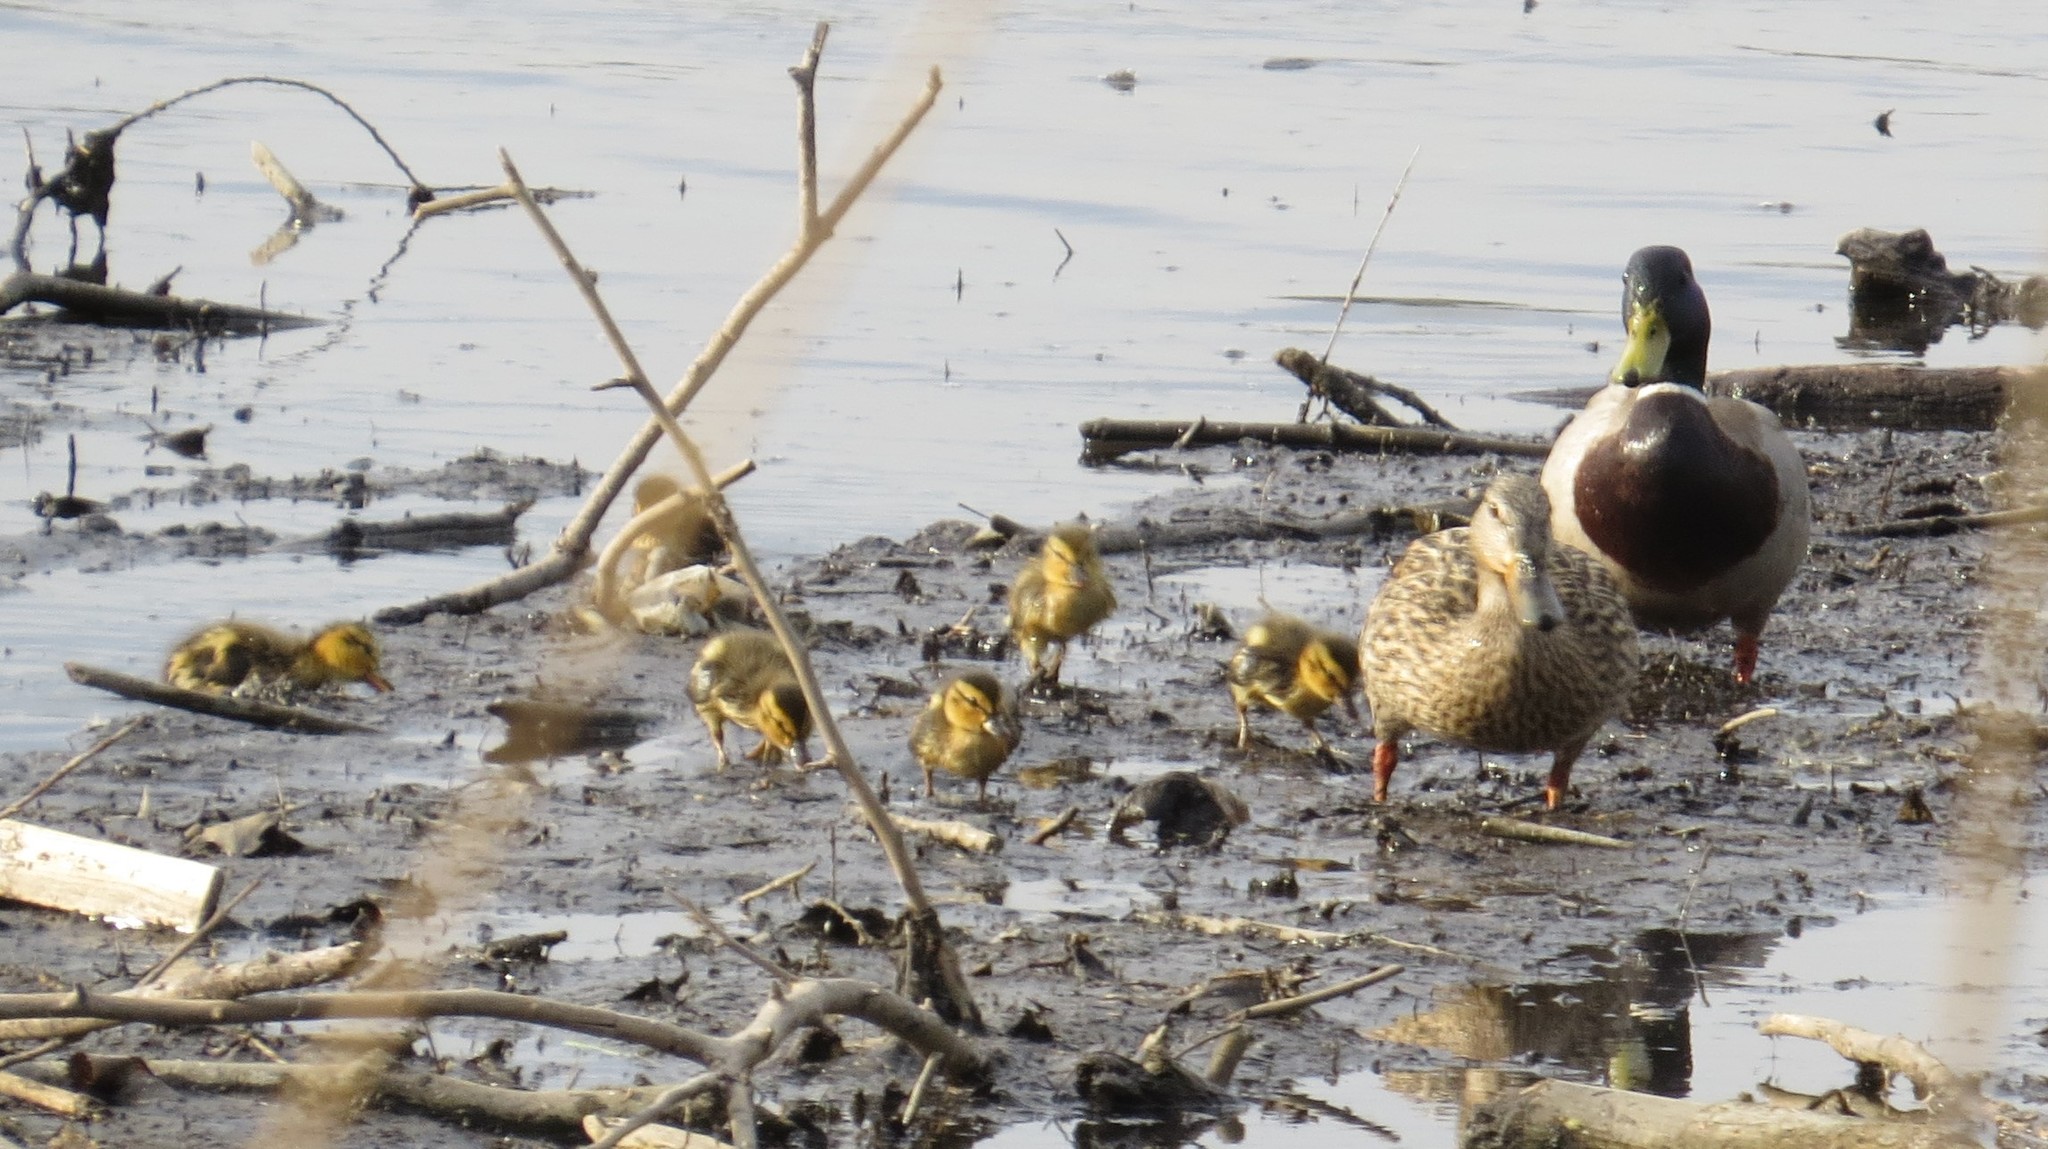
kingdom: Animalia
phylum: Chordata
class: Aves
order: Anseriformes
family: Anatidae
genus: Anas
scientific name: Anas platyrhynchos
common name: Mallard
